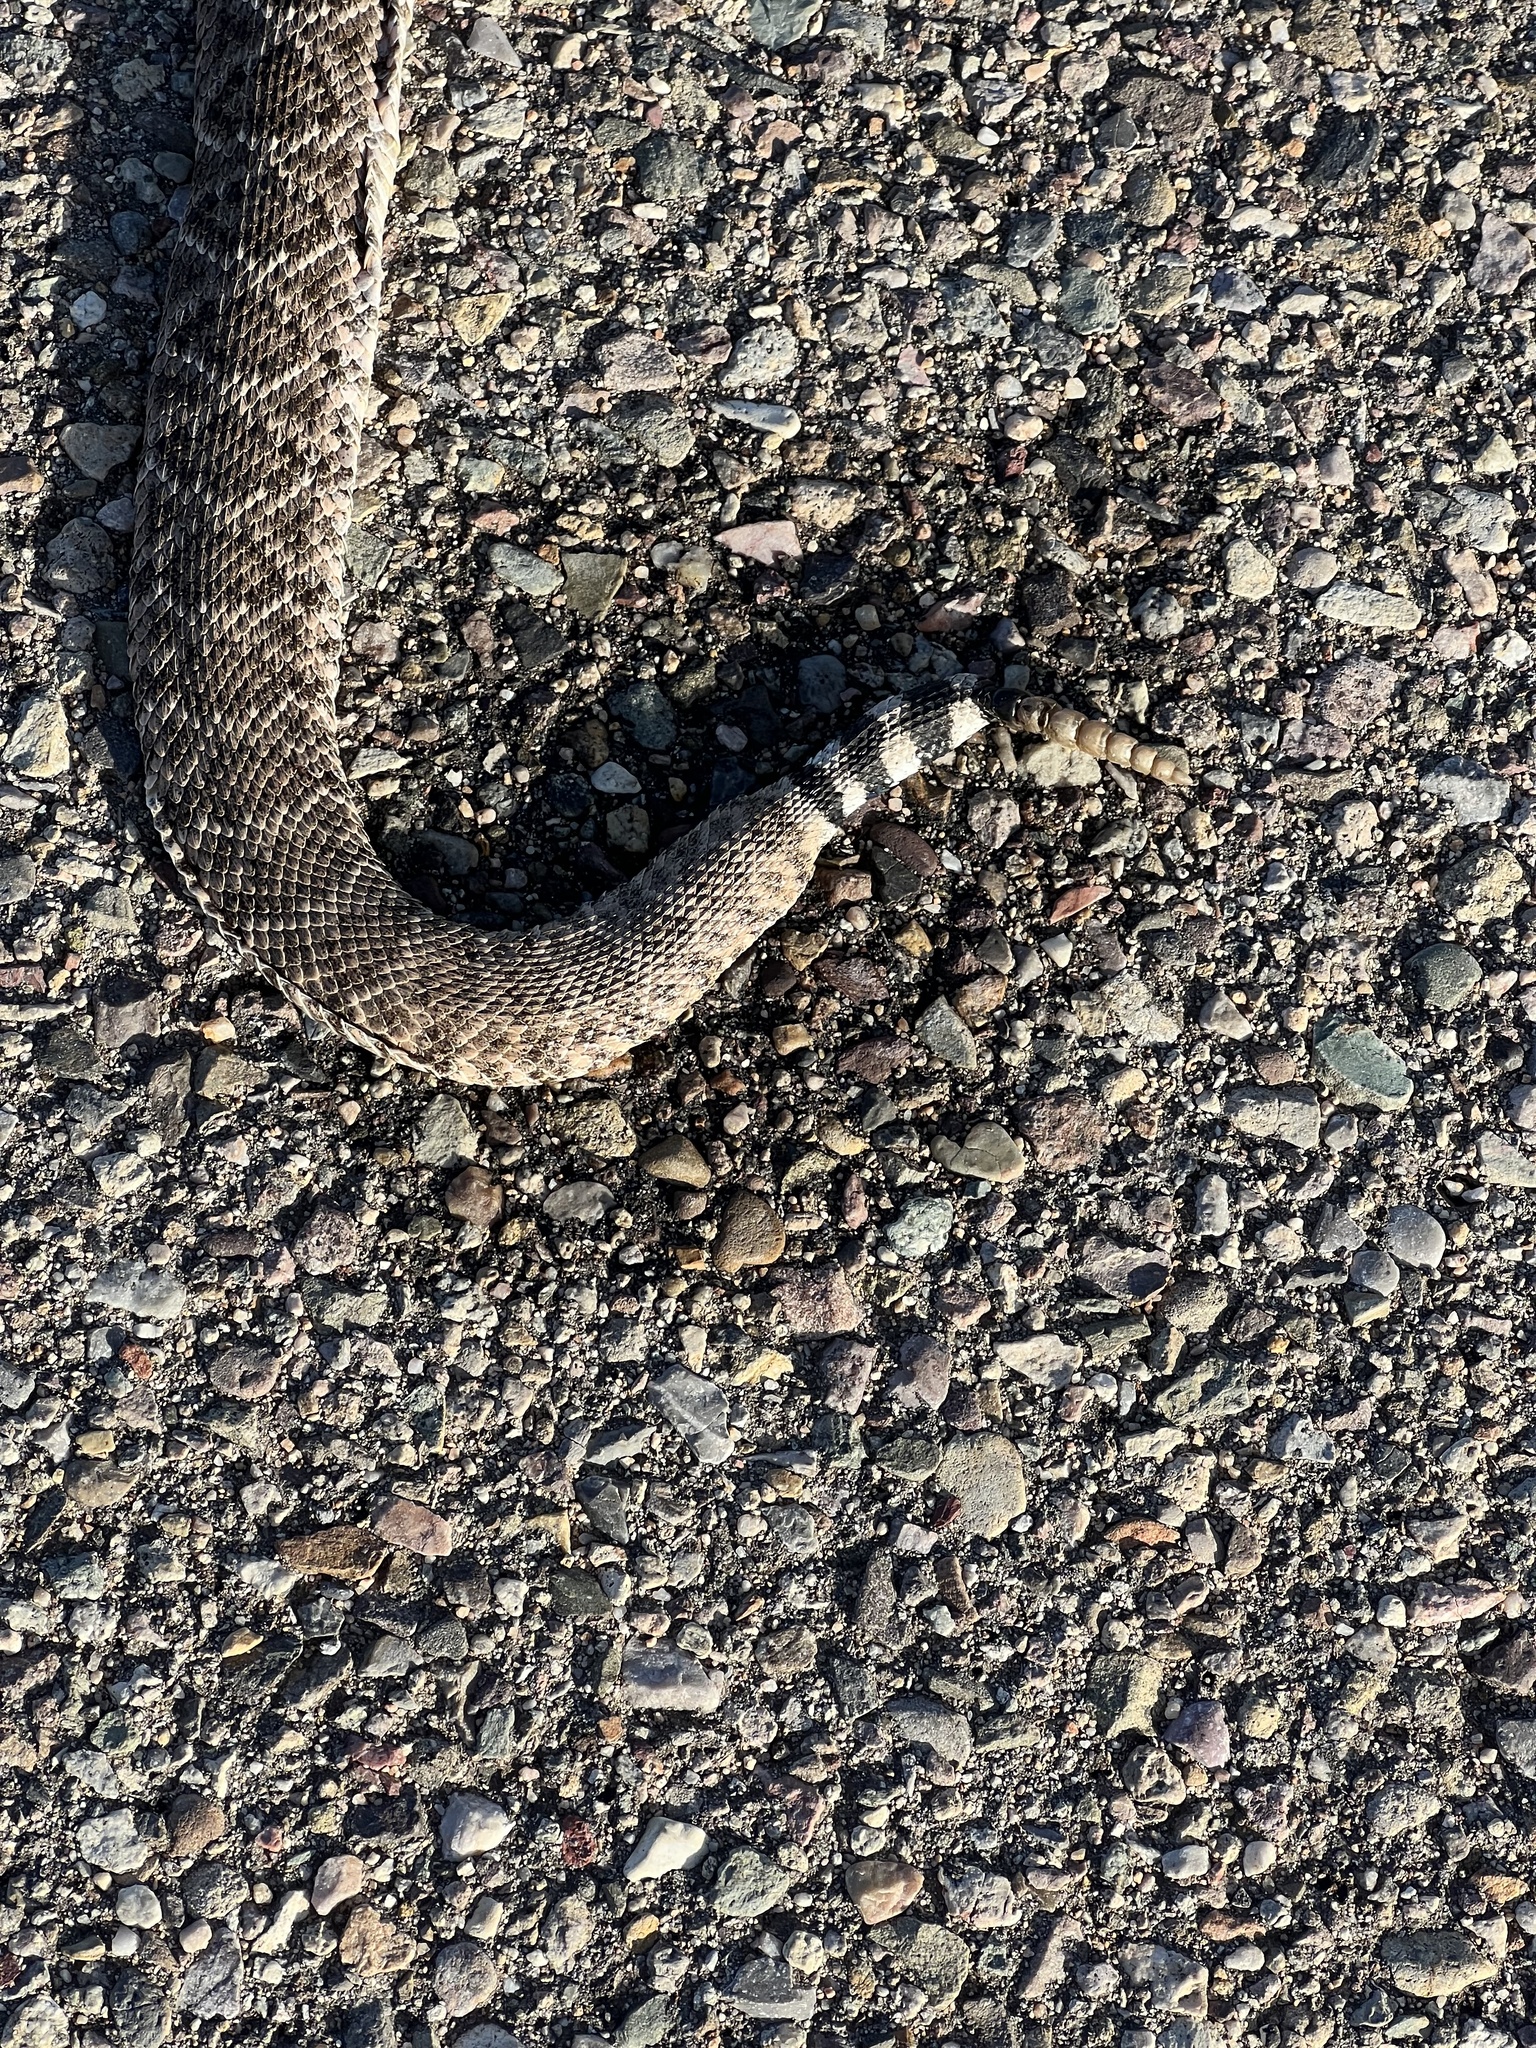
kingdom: Animalia
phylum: Chordata
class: Squamata
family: Viperidae
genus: Crotalus
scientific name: Crotalus atrox
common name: Western diamond-backed rattlesnake
